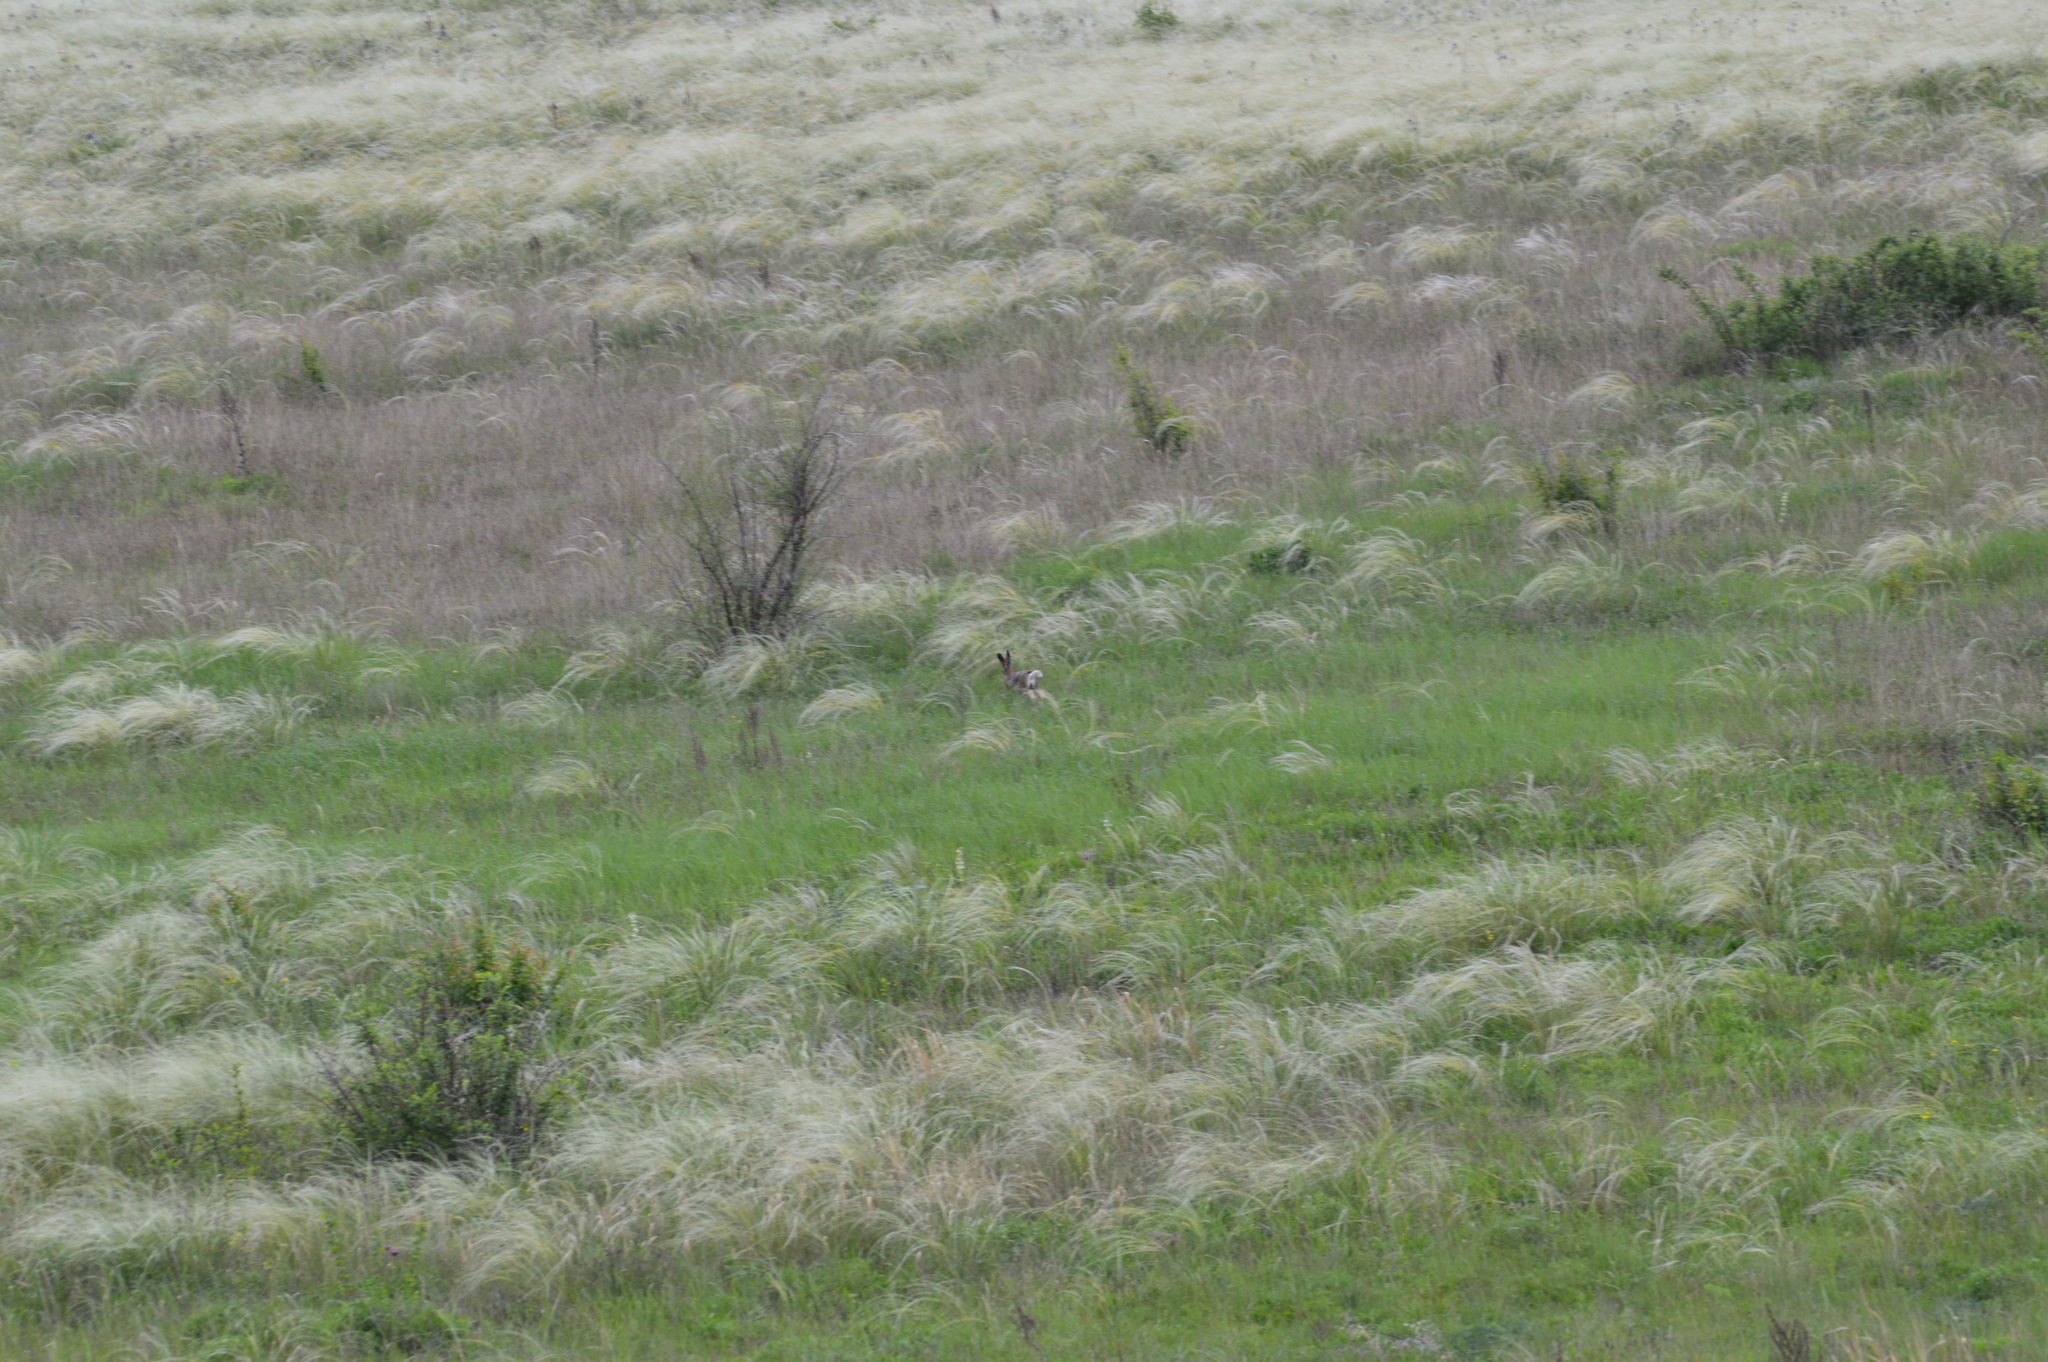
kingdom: Animalia
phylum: Chordata
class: Mammalia
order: Lagomorpha
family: Leporidae
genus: Lepus
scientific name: Lepus europaeus
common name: European hare
